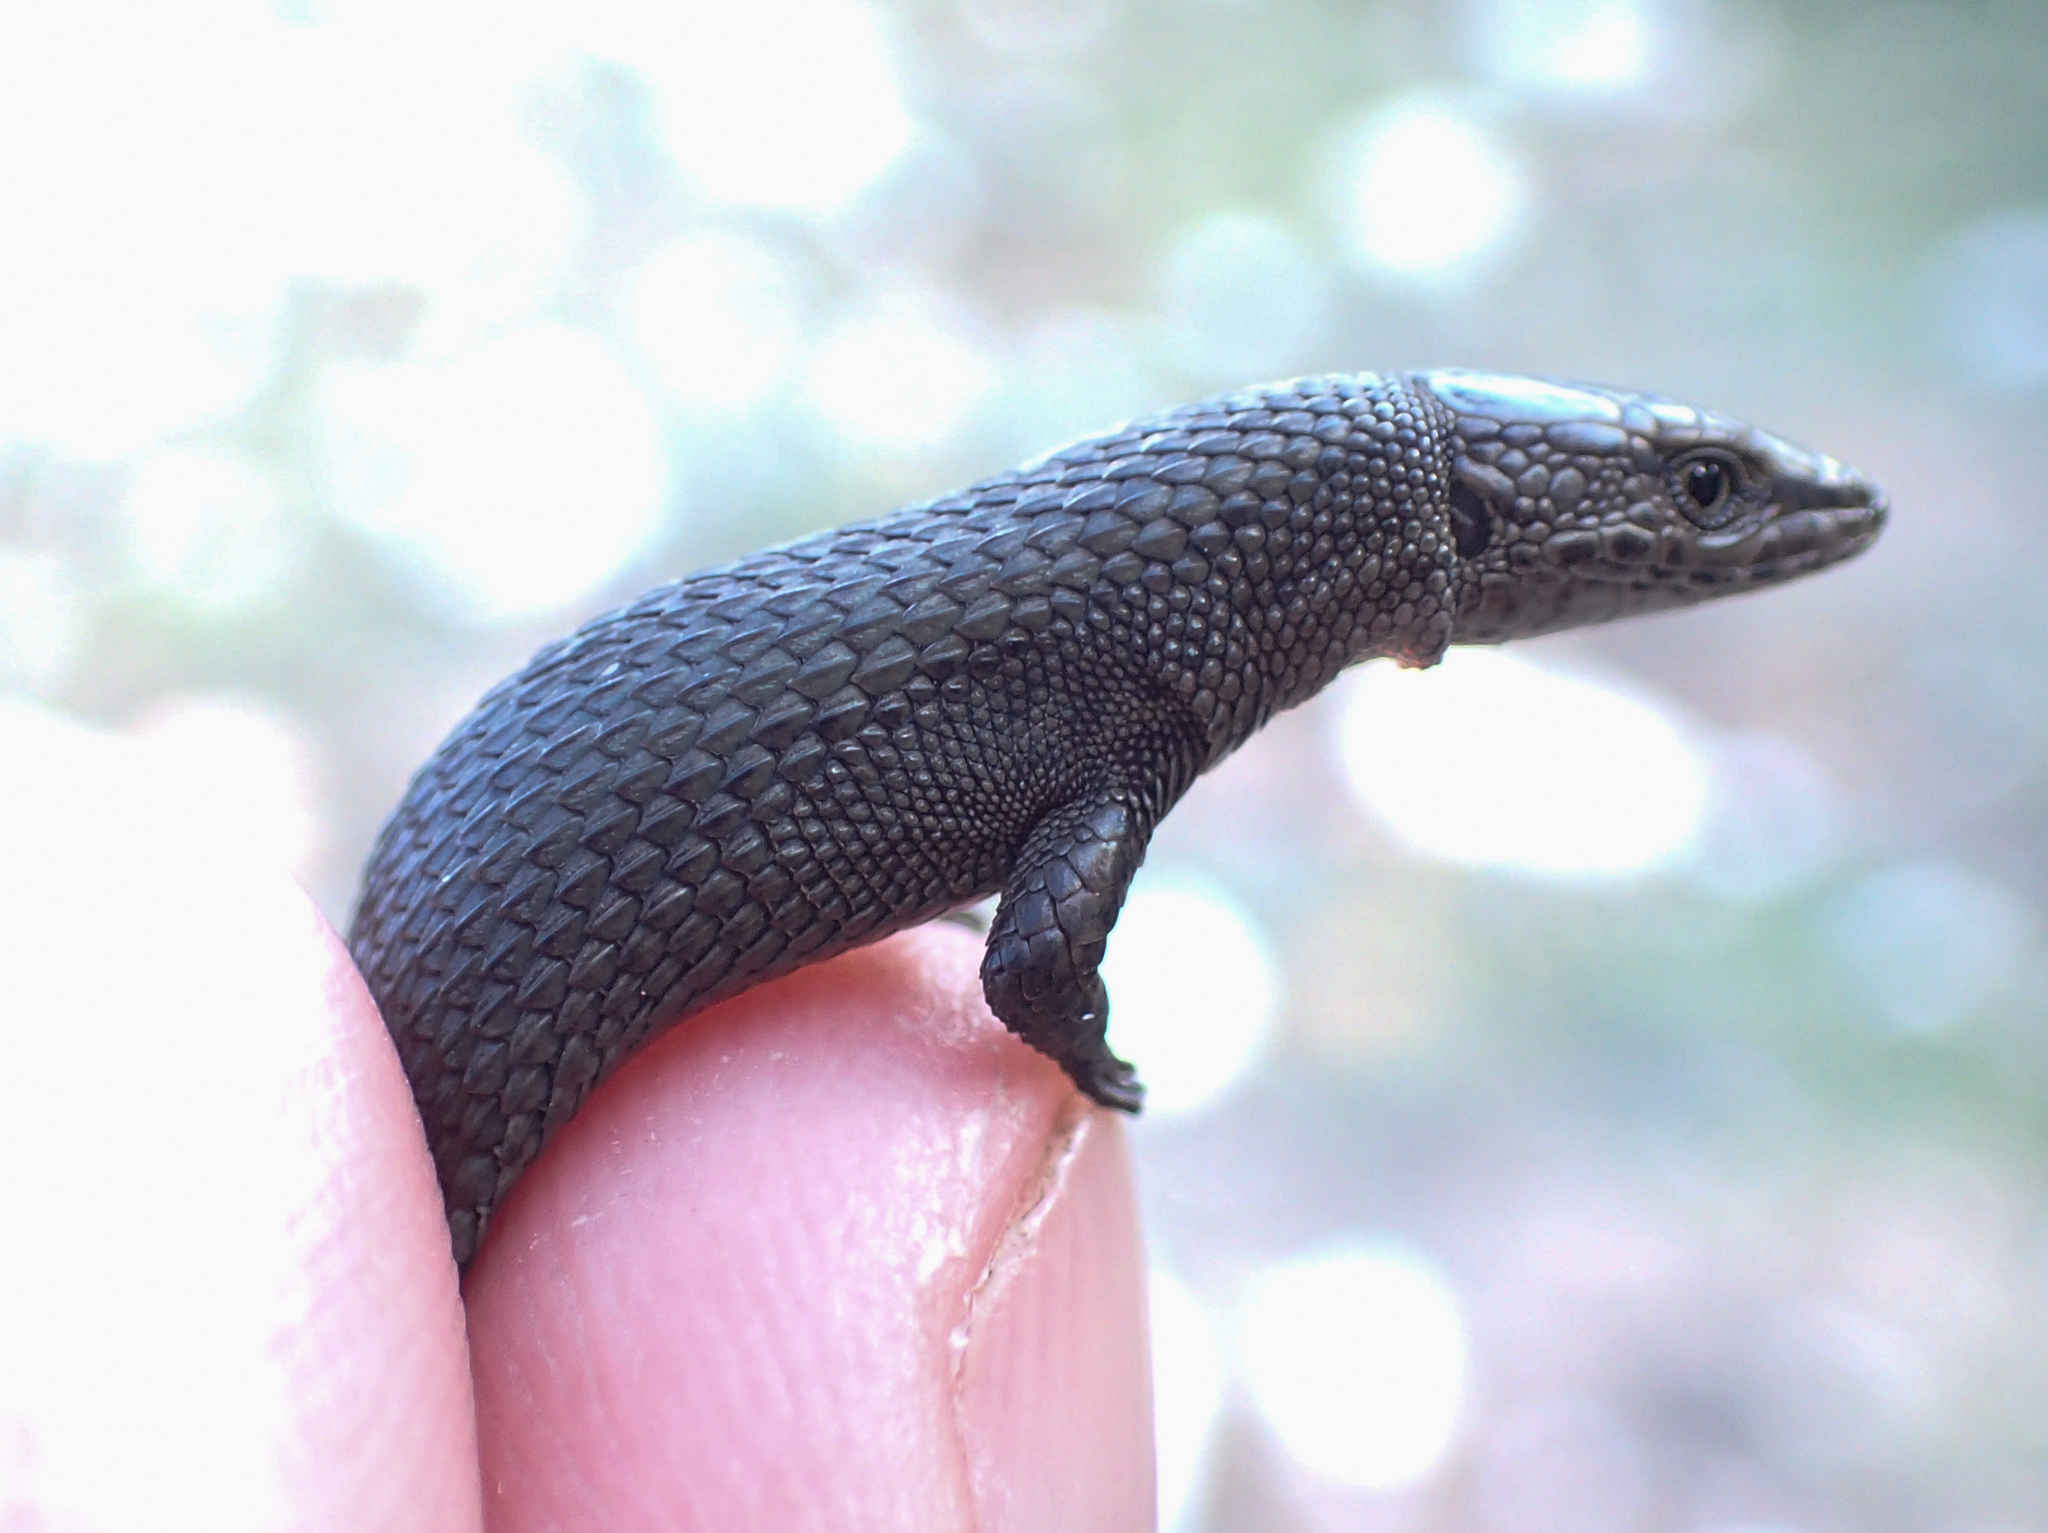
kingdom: Animalia
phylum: Chordata
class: Squamata
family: Lacertidae
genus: Algyroides
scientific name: Algyroides fitzingeri
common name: Fitzinger's algyroides
